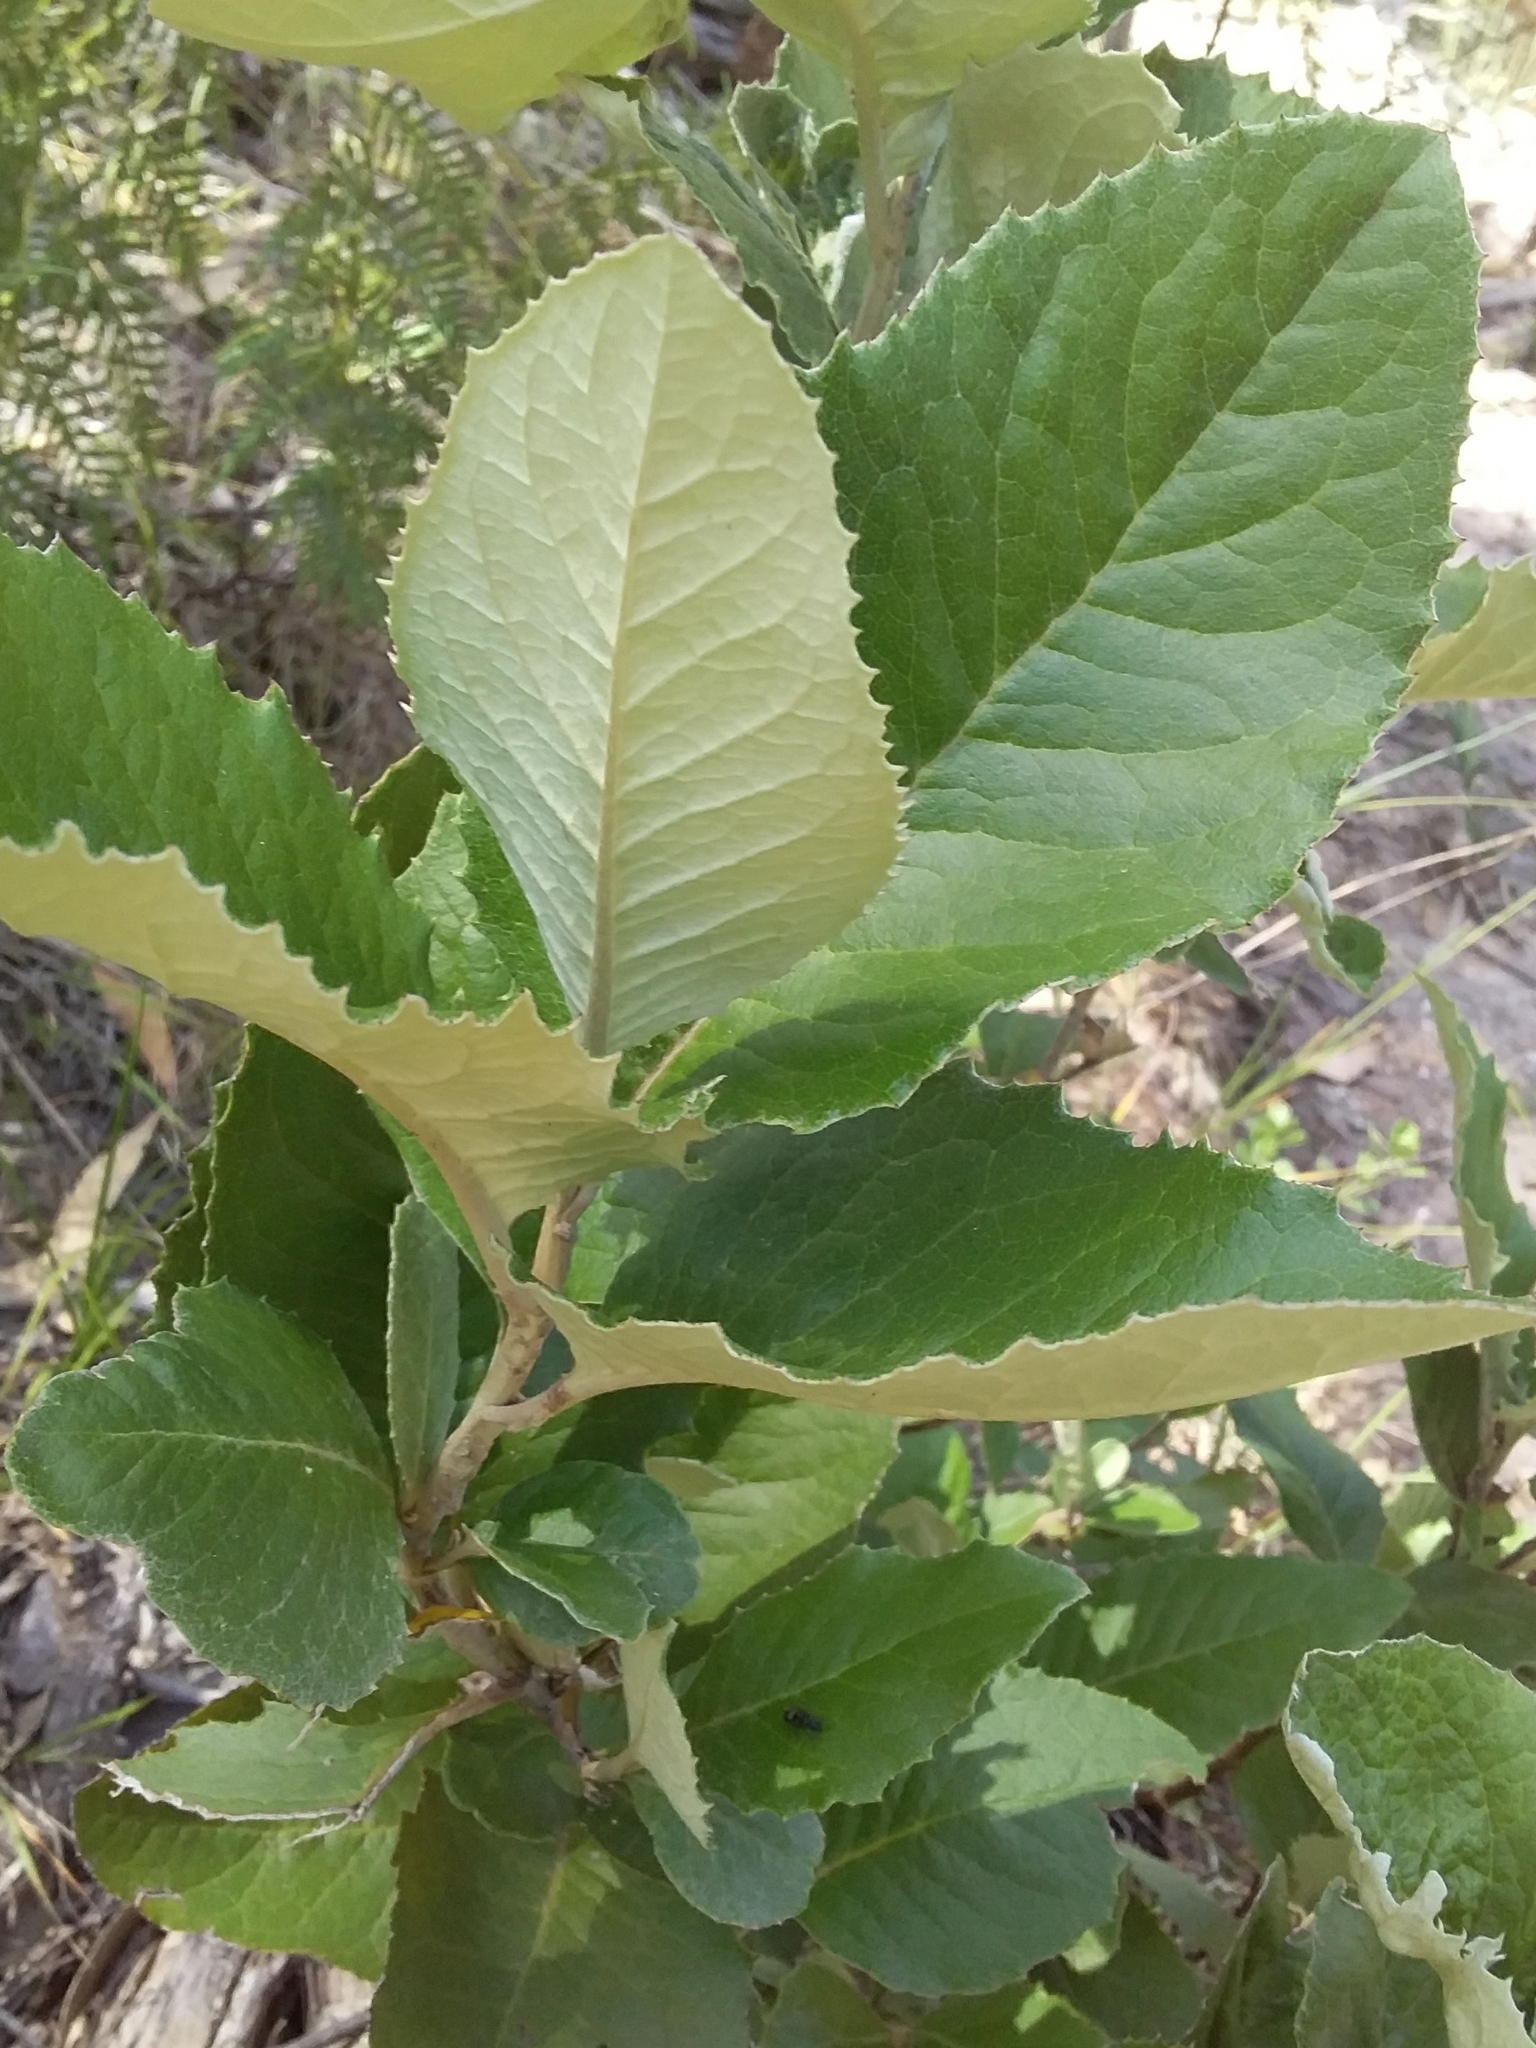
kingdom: Plantae
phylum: Tracheophyta
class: Magnoliopsida
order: Asterales
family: Asteraceae
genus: Olearia
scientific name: Olearia grandiflora
